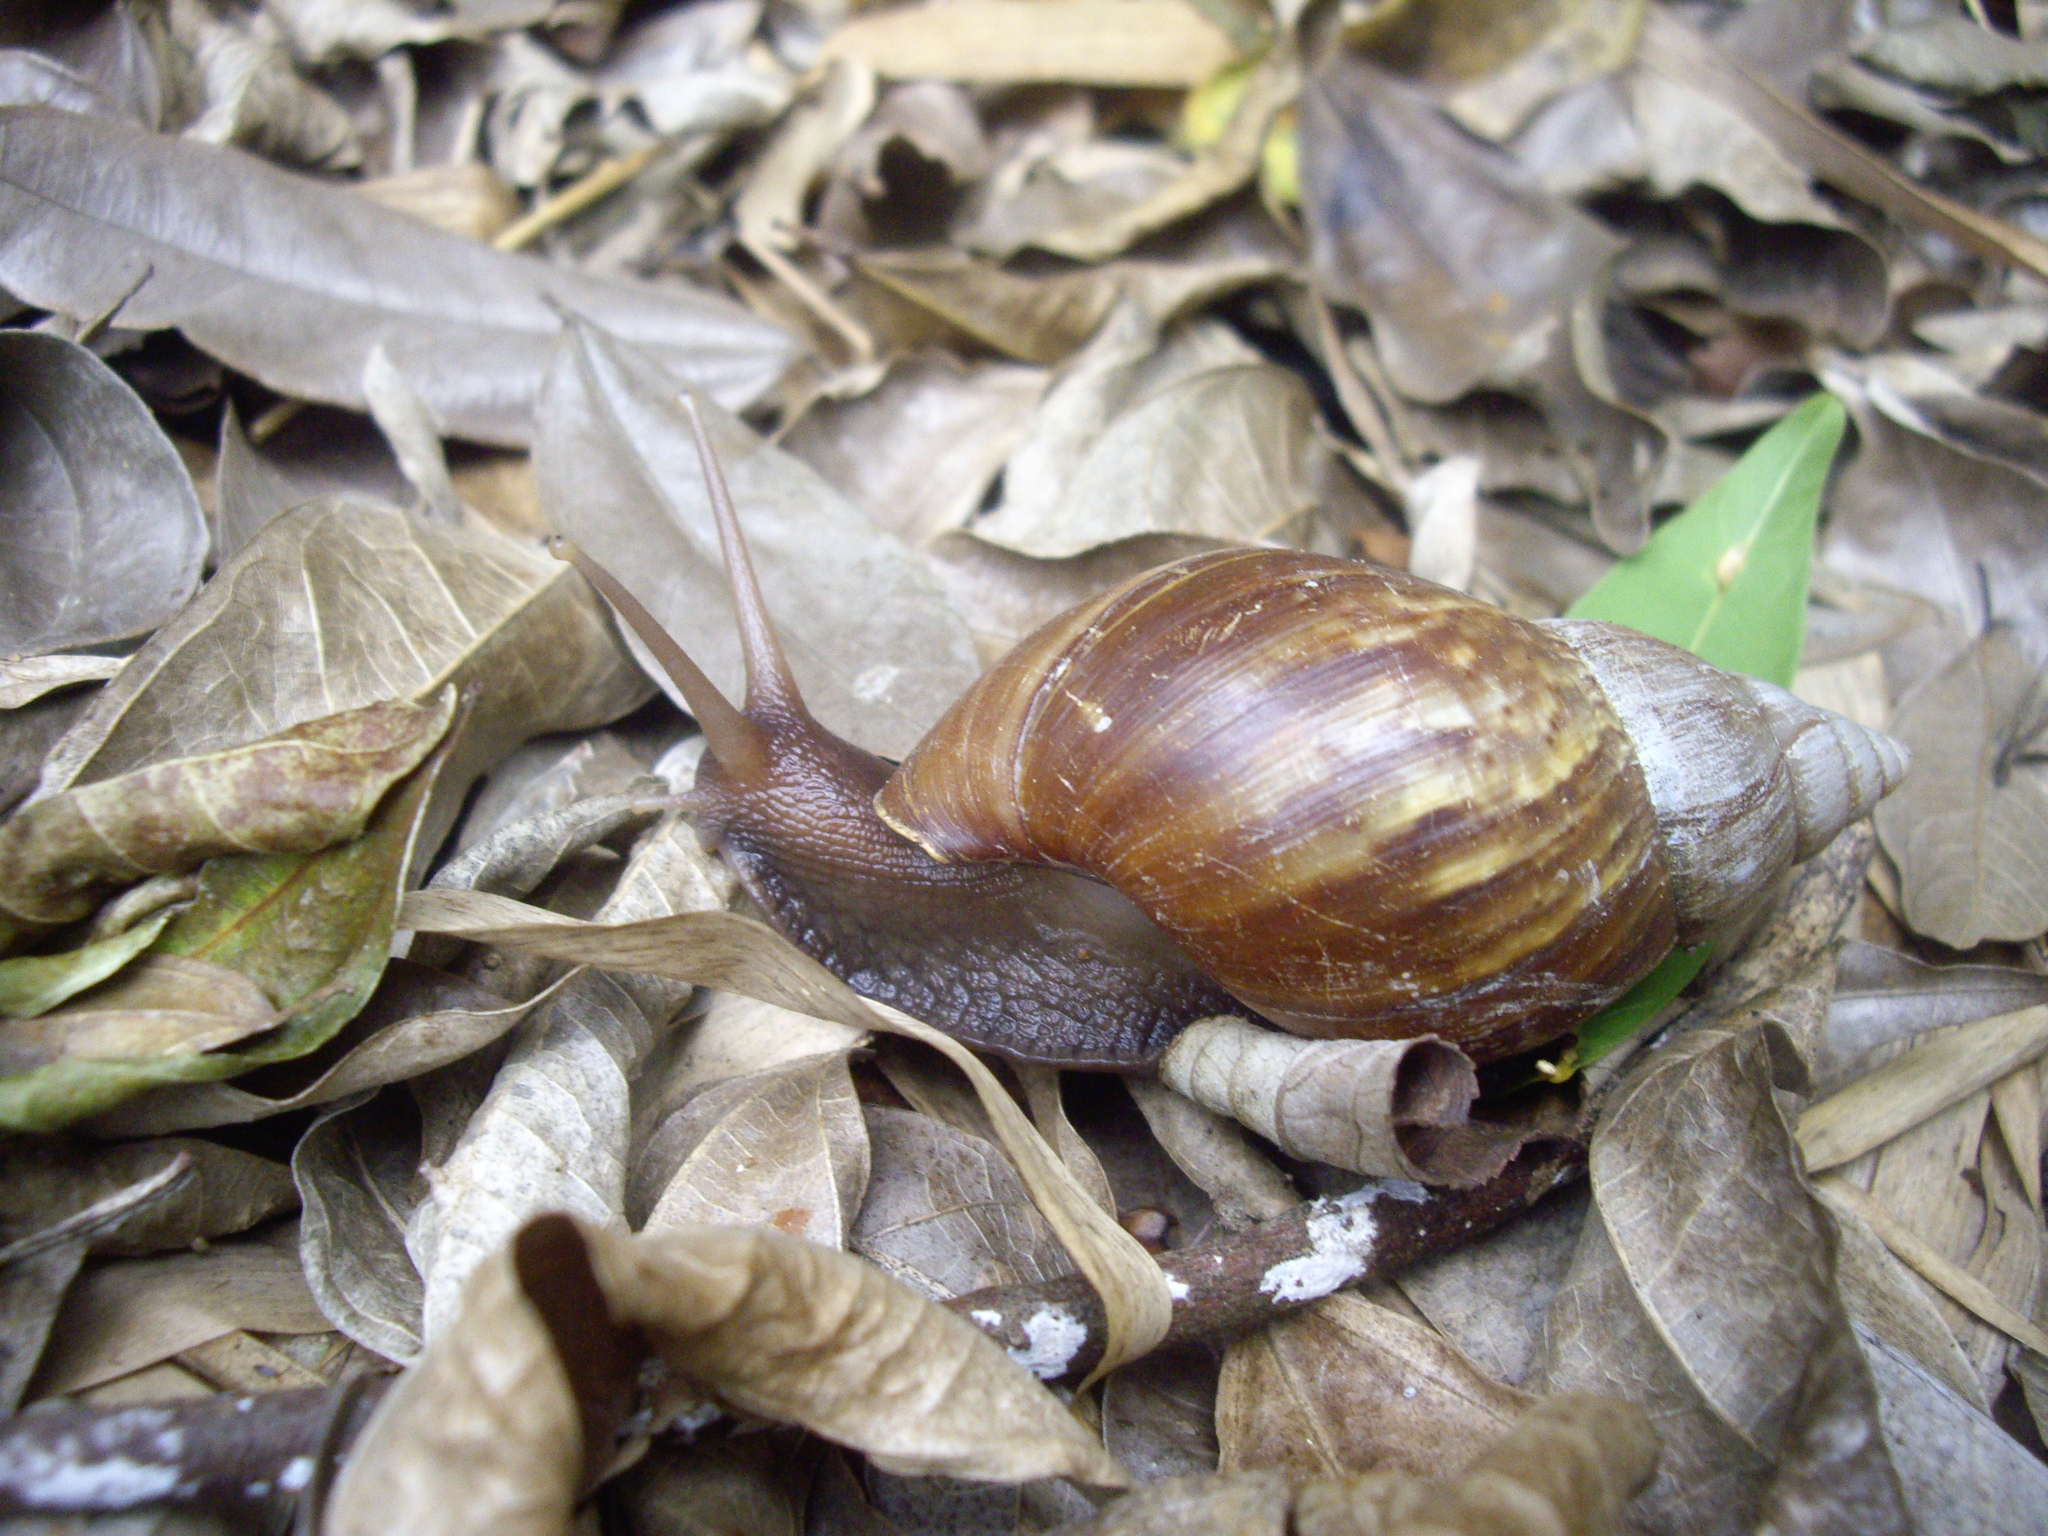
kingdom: Animalia
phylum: Mollusca
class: Gastropoda
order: Stylommatophora
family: Achatinidae
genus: Lissachatina
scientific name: Lissachatina fulica
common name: Giant african snail
